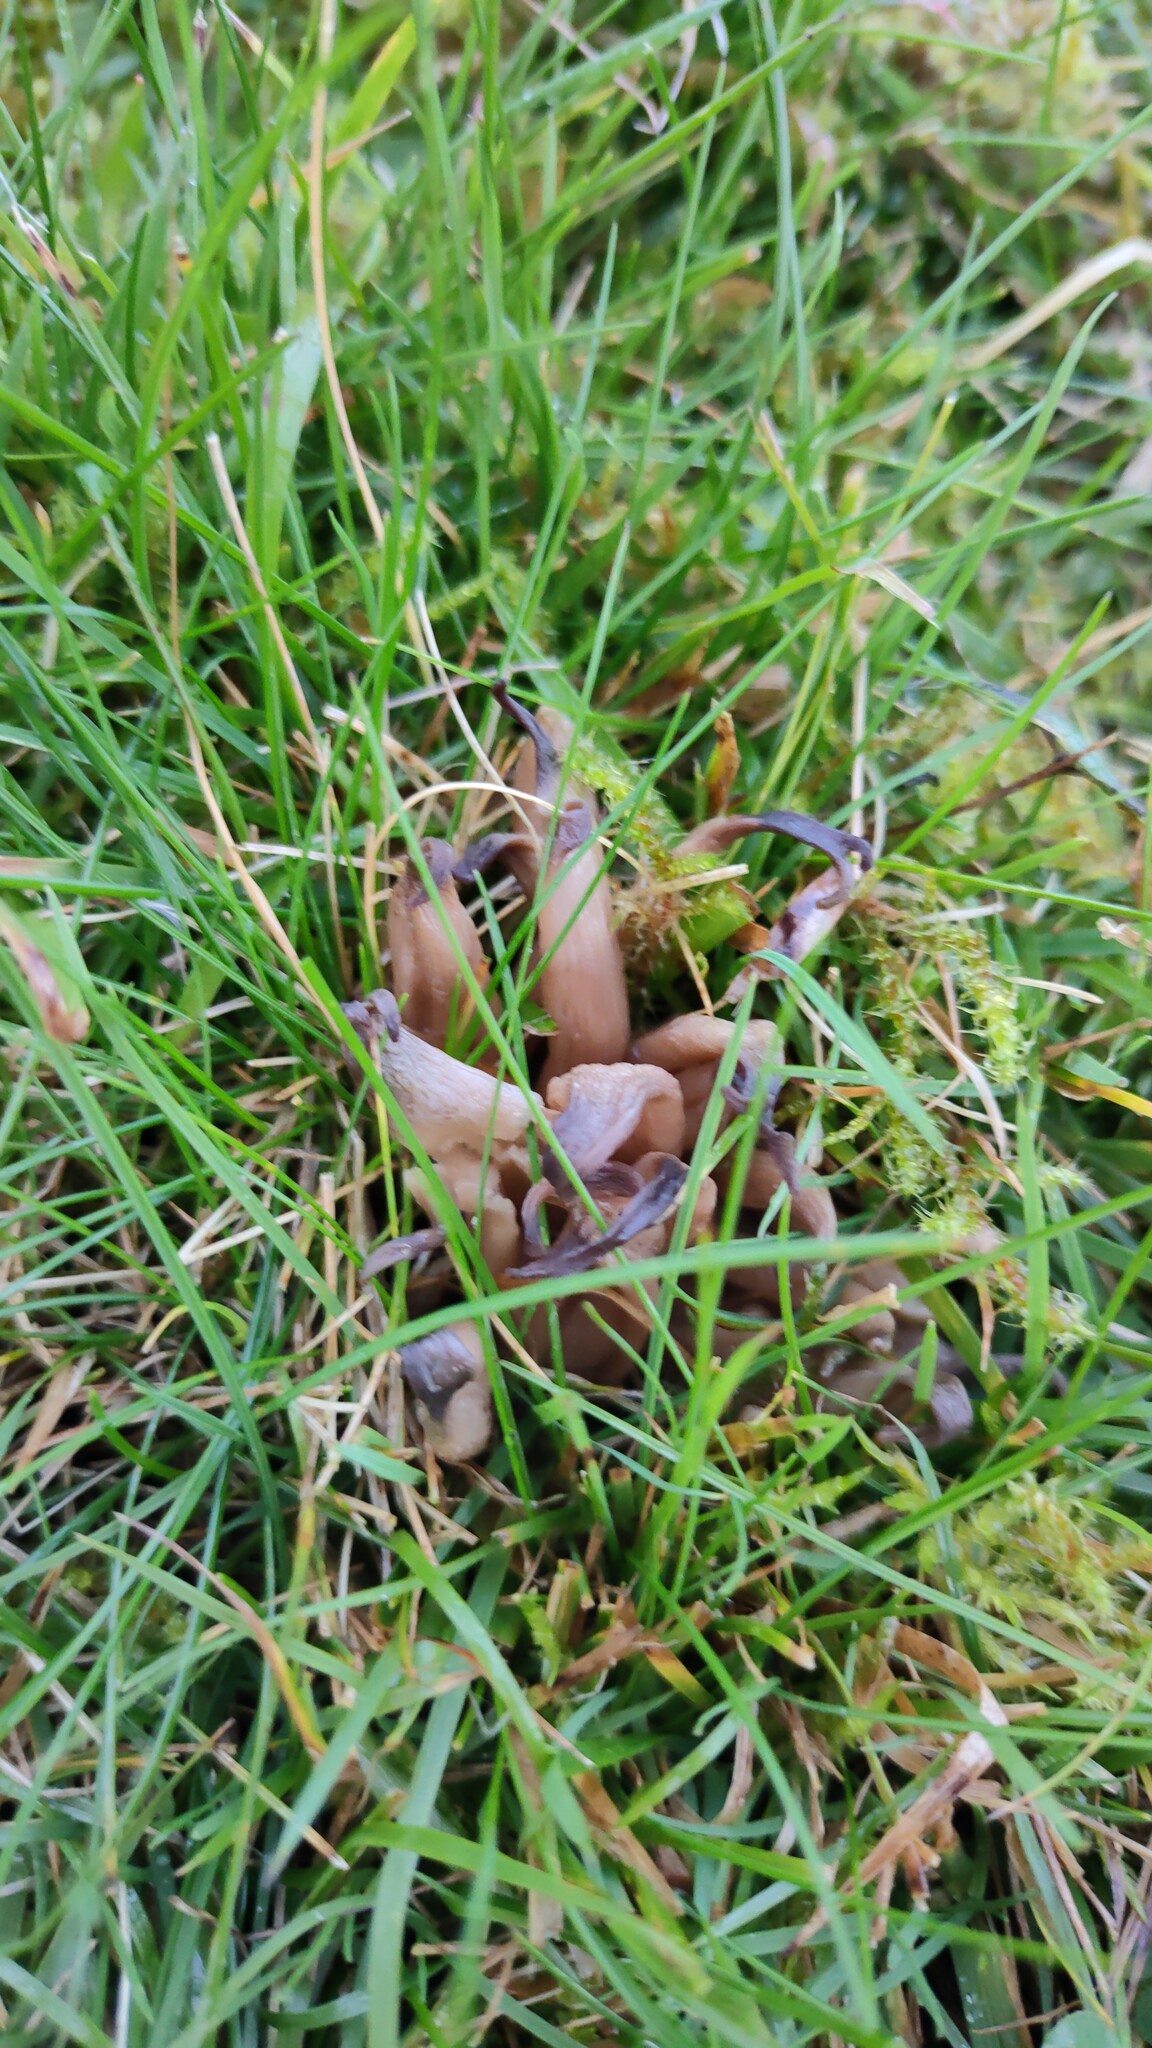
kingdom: Fungi
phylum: Basidiomycota
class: Agaricomycetes
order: Agaricales
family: Clavariaceae
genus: Clavaria
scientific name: Clavaria fumosa
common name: Smoky spindles
